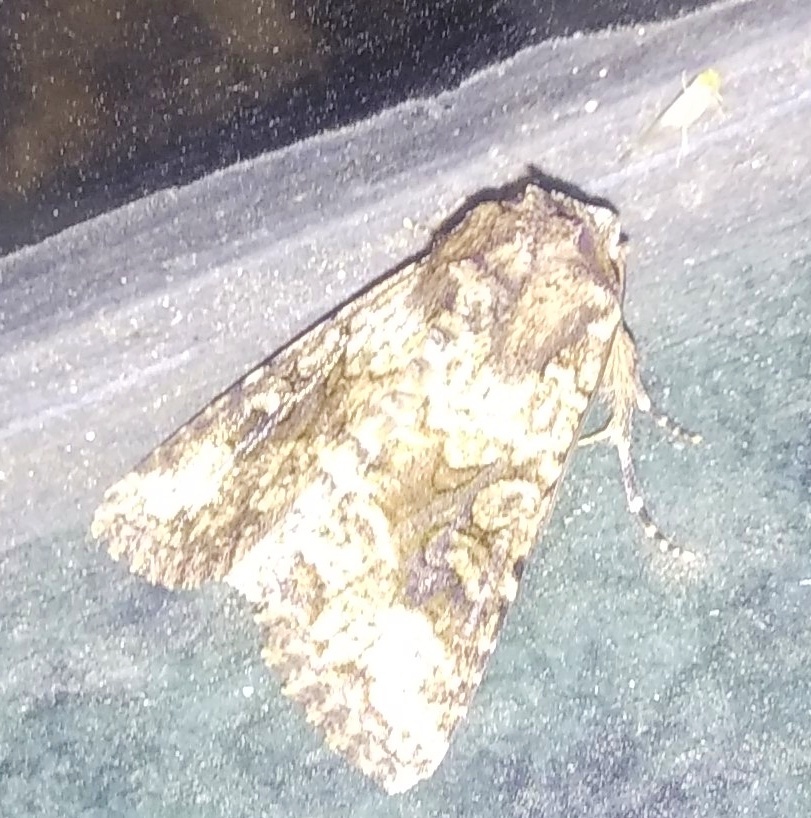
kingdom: Animalia
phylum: Arthropoda
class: Insecta
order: Lepidoptera
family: Noctuidae
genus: Anarta
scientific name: Anarta trifolii
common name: Clover cutworm moth
